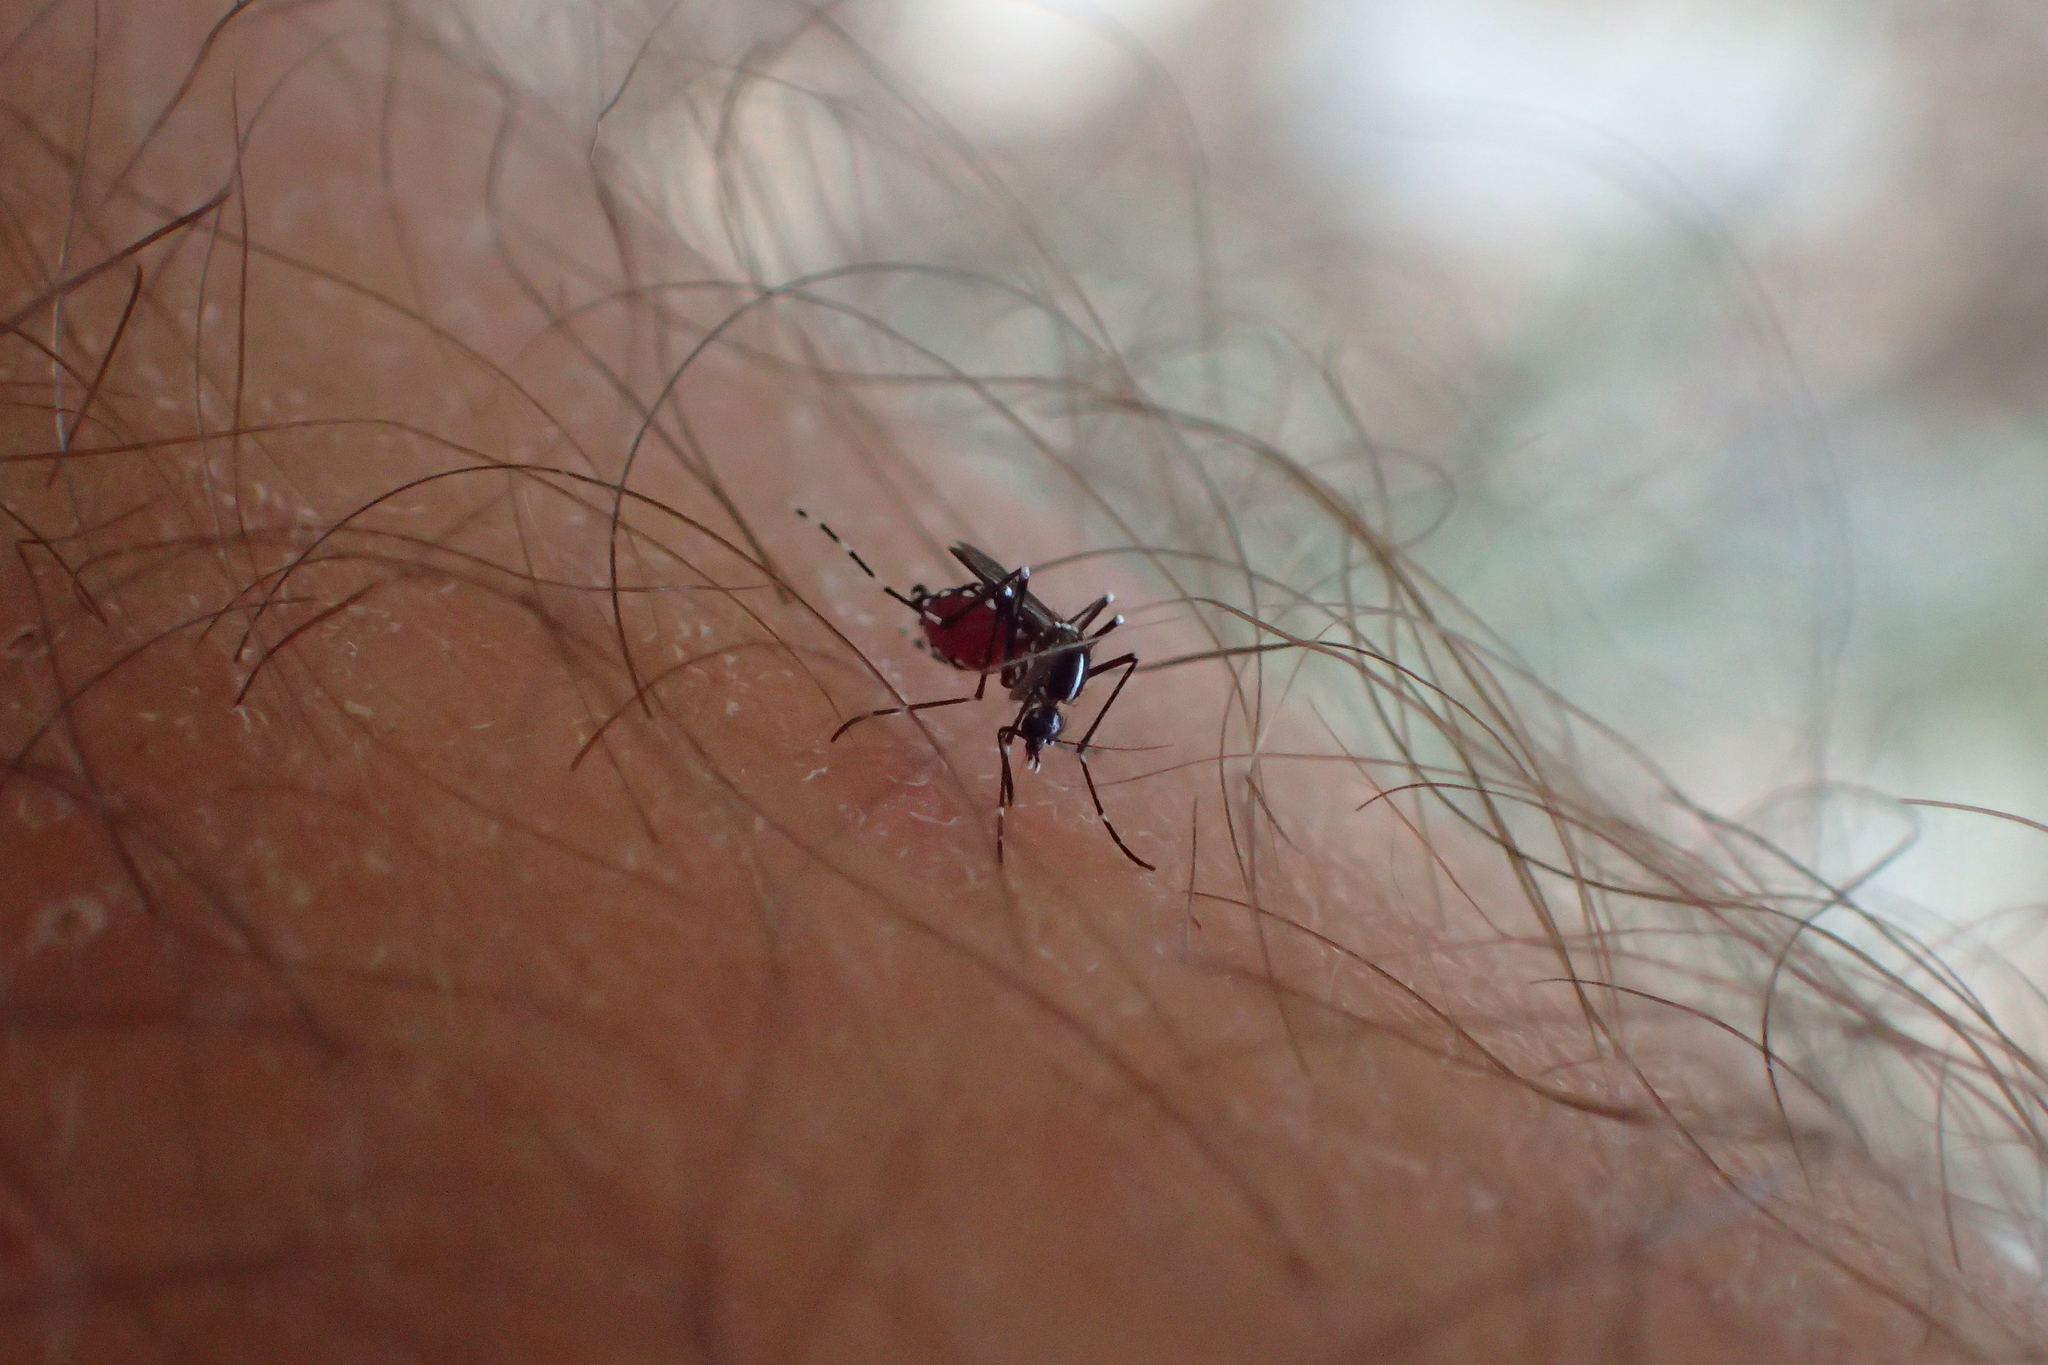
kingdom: Animalia
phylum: Arthropoda
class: Insecta
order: Diptera
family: Culicidae
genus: Aedes
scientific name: Aedes albopictus
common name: Tiger mosquito
